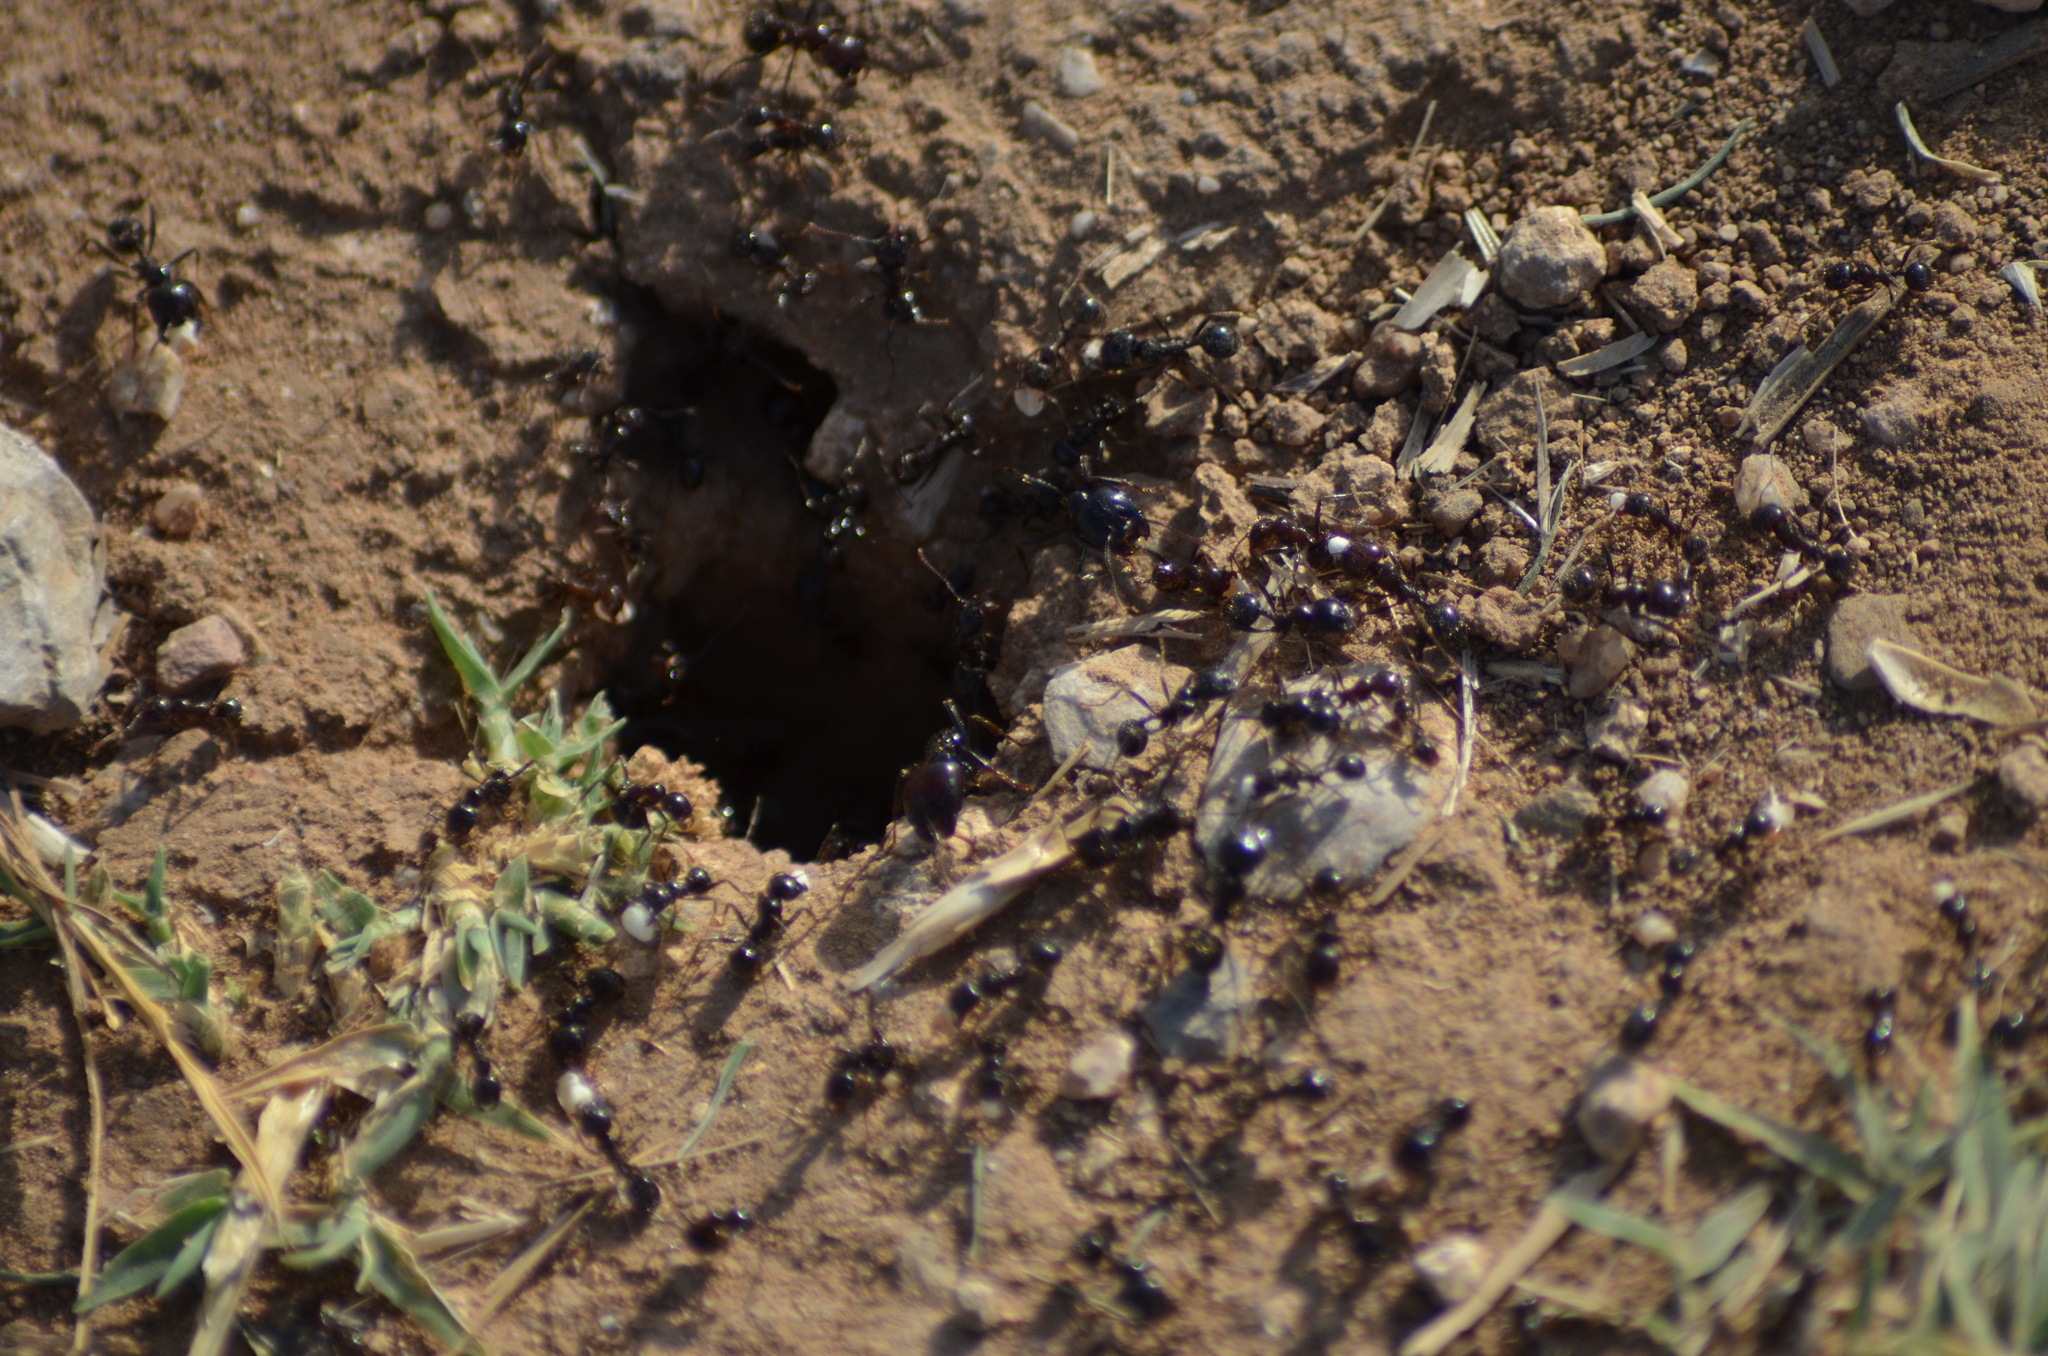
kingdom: Animalia
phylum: Arthropoda
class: Insecta
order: Hymenoptera
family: Formicidae
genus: Messor
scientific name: Messor barbarus
